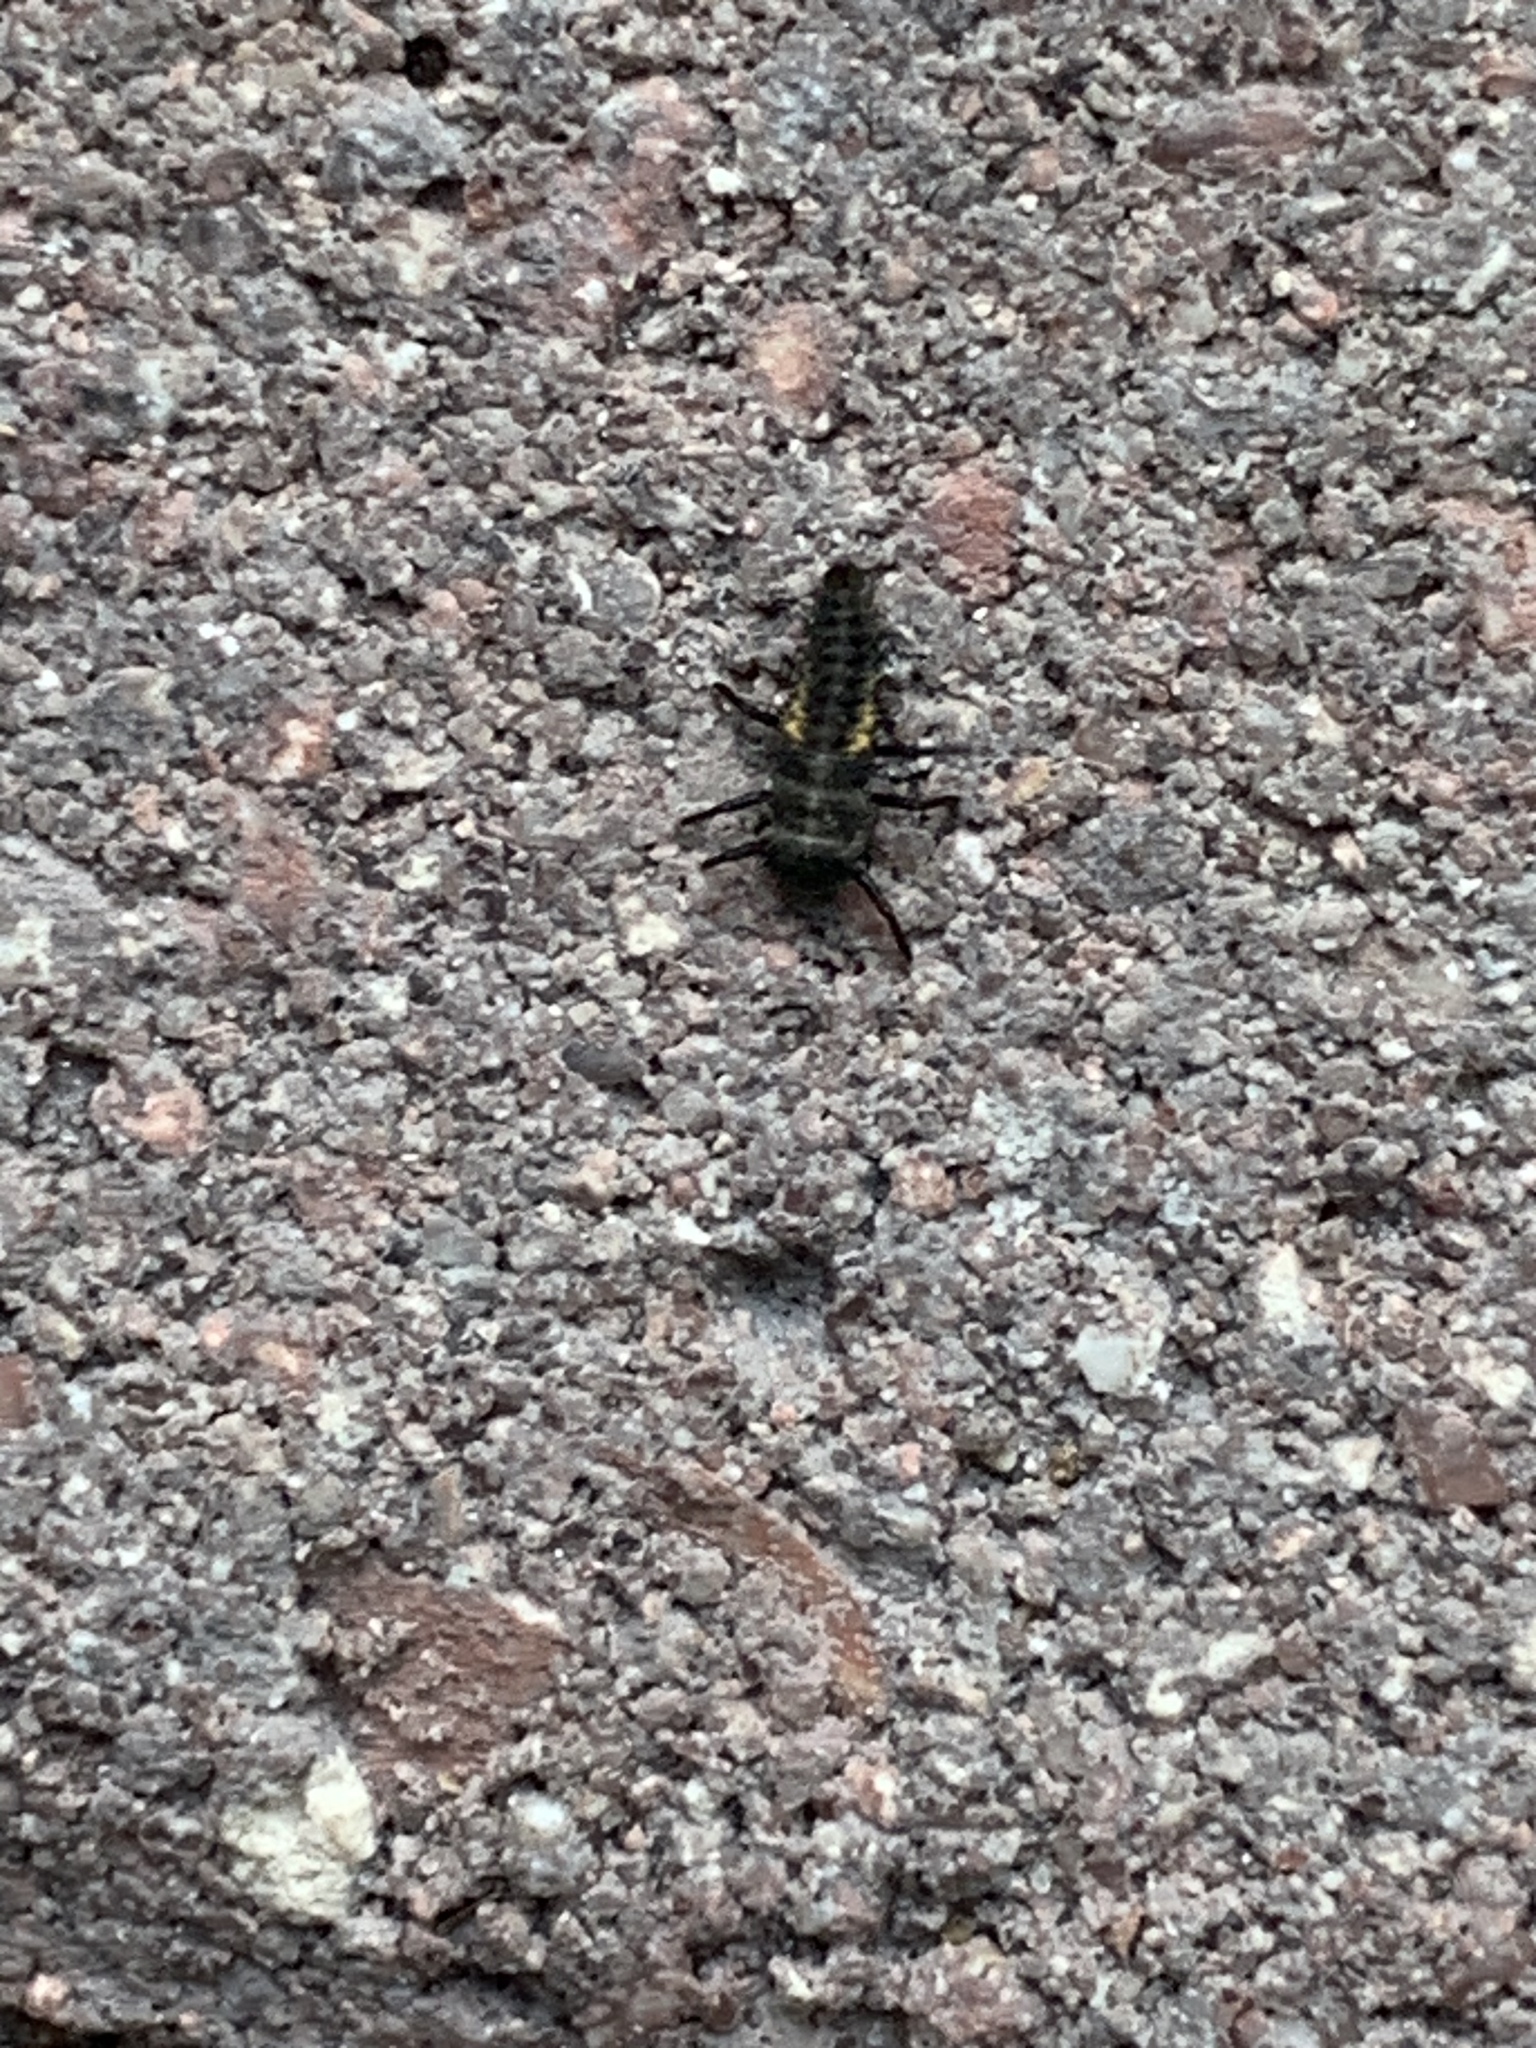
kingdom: Animalia
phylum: Arthropoda
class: Insecta
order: Coleoptera
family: Coccinellidae
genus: Harmonia
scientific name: Harmonia axyridis
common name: Harlequin ladybird
